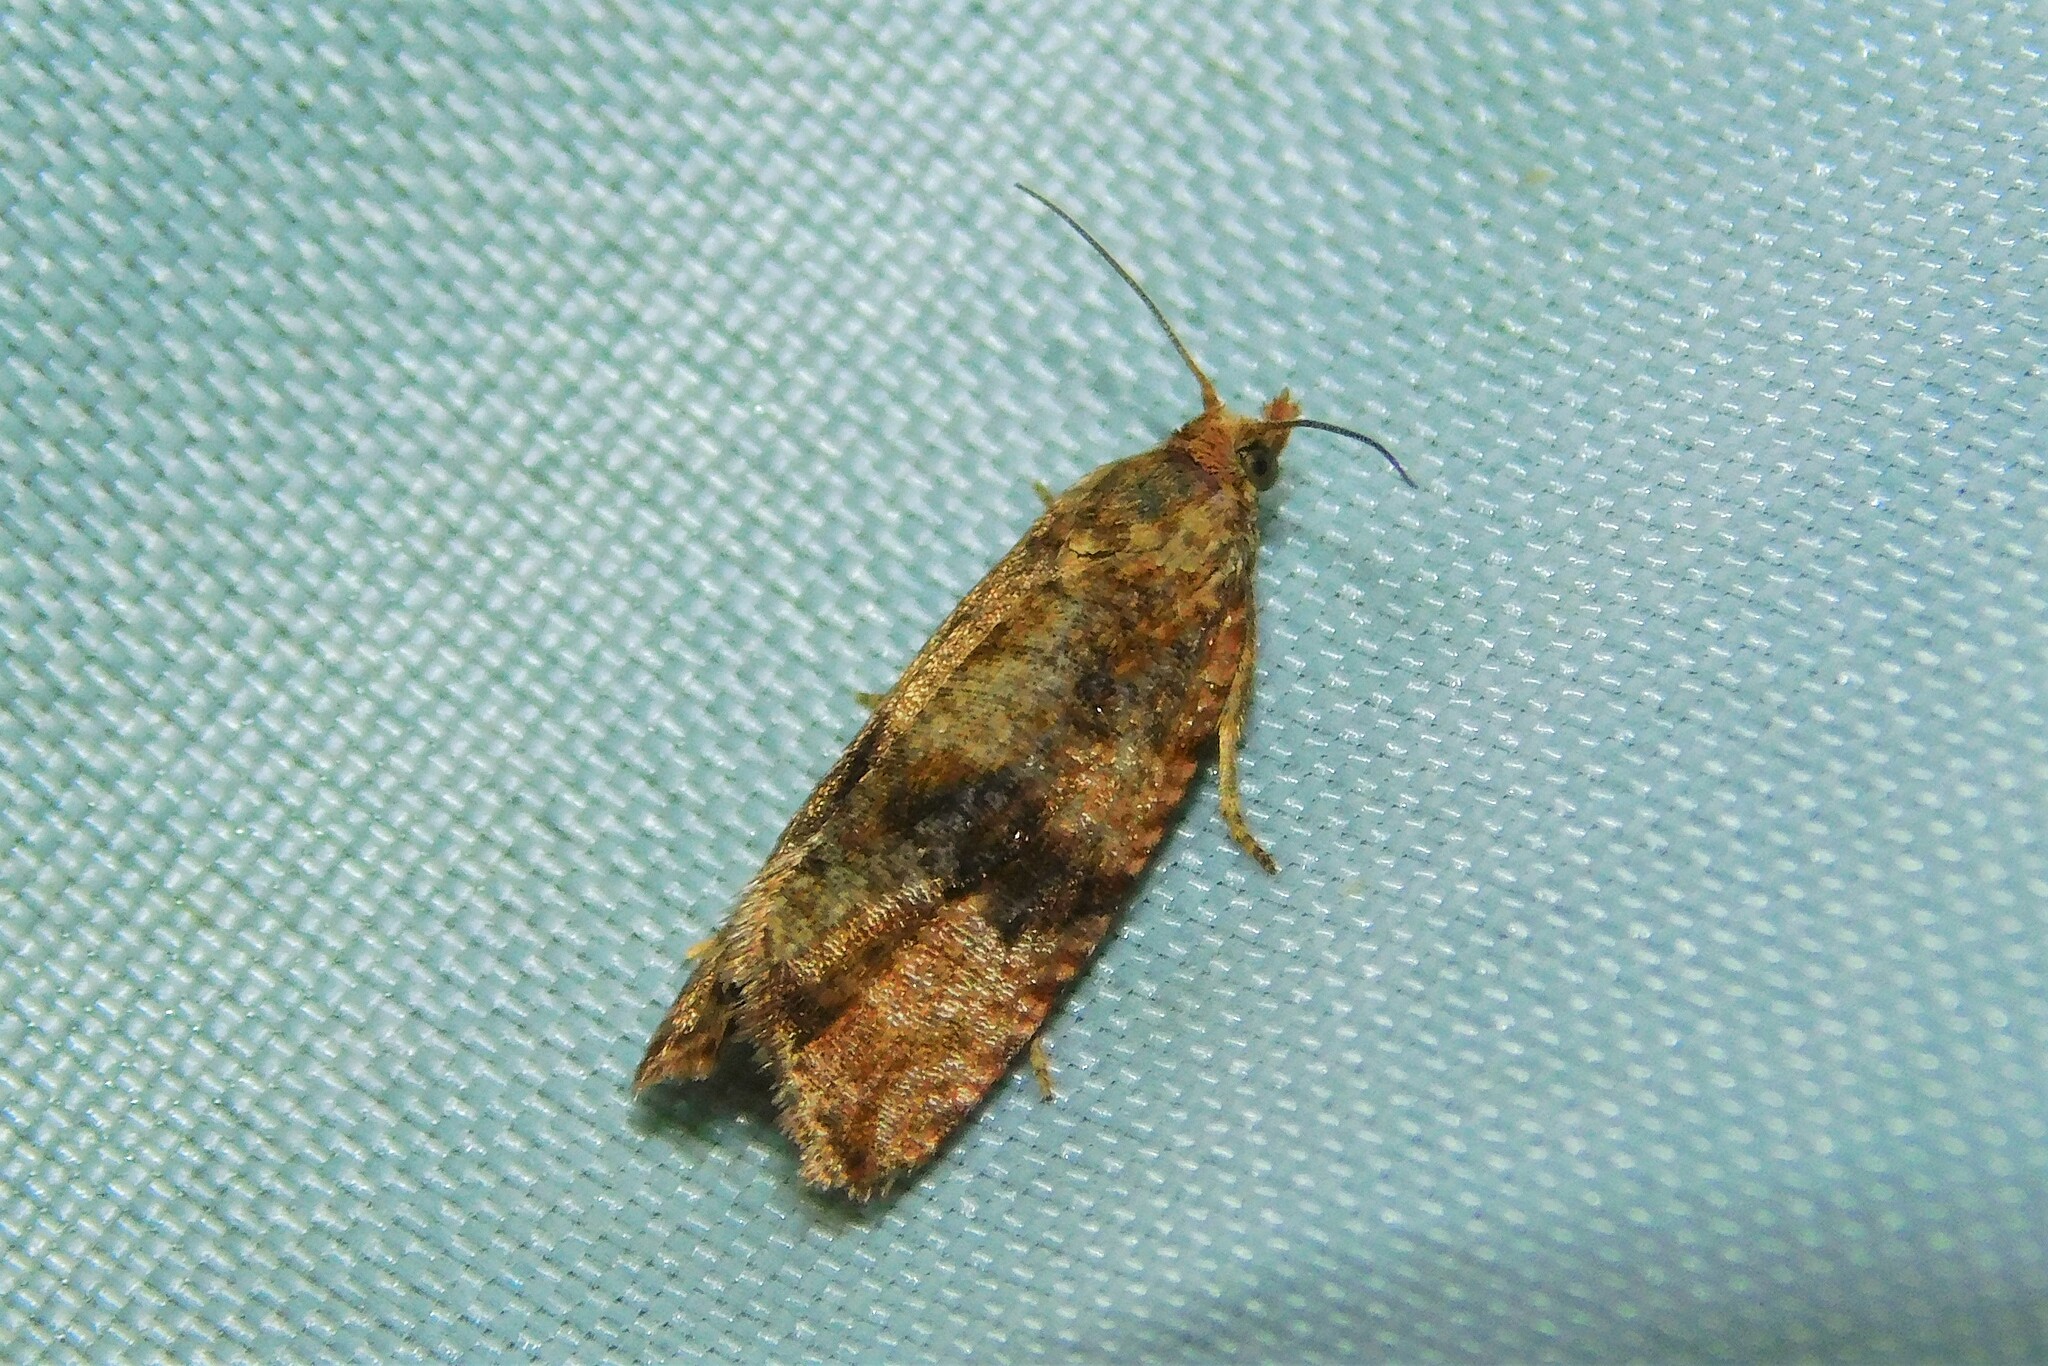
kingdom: Animalia
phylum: Arthropoda
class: Insecta
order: Lepidoptera
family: Tortricidae
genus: Celypha
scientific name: Celypha striana
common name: Barred marble
